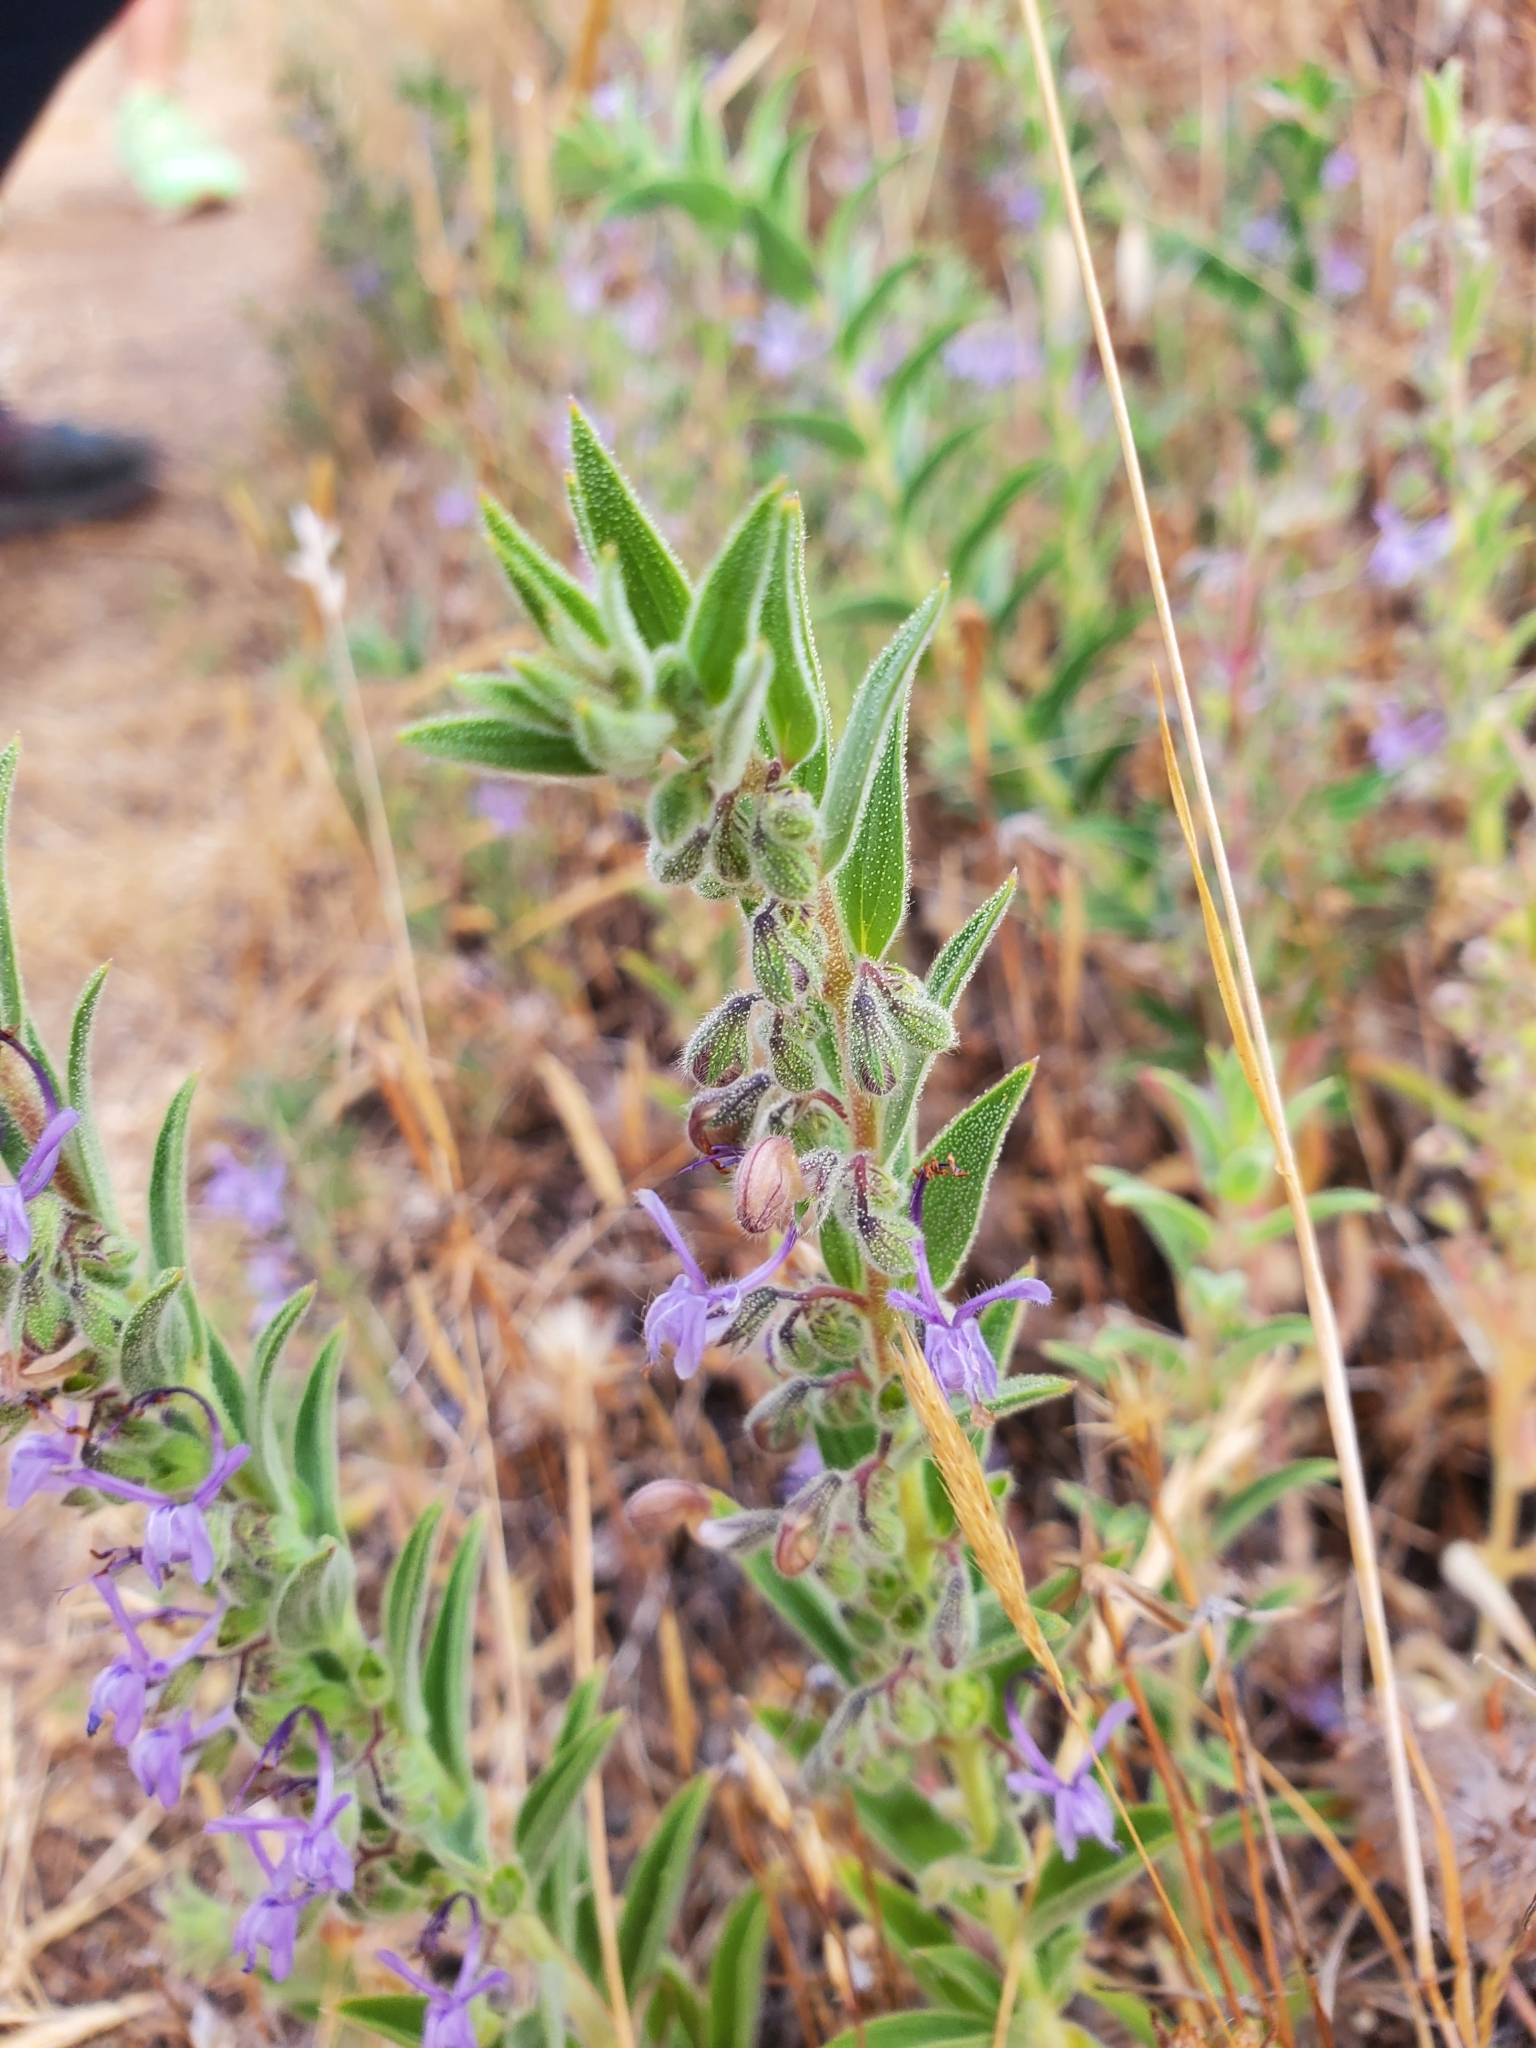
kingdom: Plantae
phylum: Tracheophyta
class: Magnoliopsida
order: Lamiales
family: Lamiaceae
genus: Trichostema
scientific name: Trichostema lanceolatum
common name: Vinegar-weed
